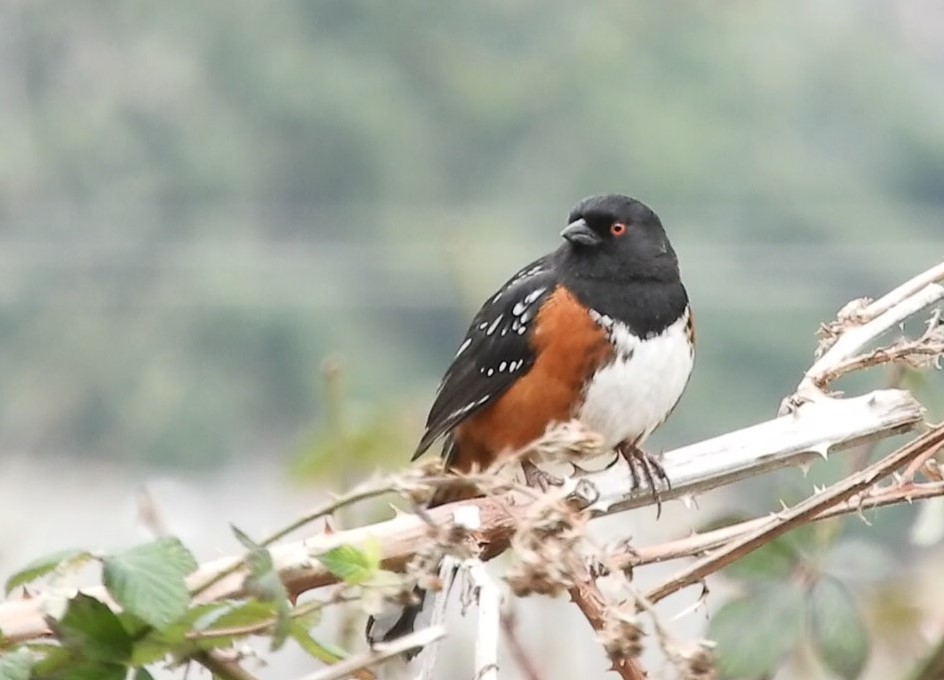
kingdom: Animalia
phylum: Chordata
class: Aves
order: Passeriformes
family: Passerellidae
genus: Pipilo
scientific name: Pipilo maculatus
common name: Spotted towhee
